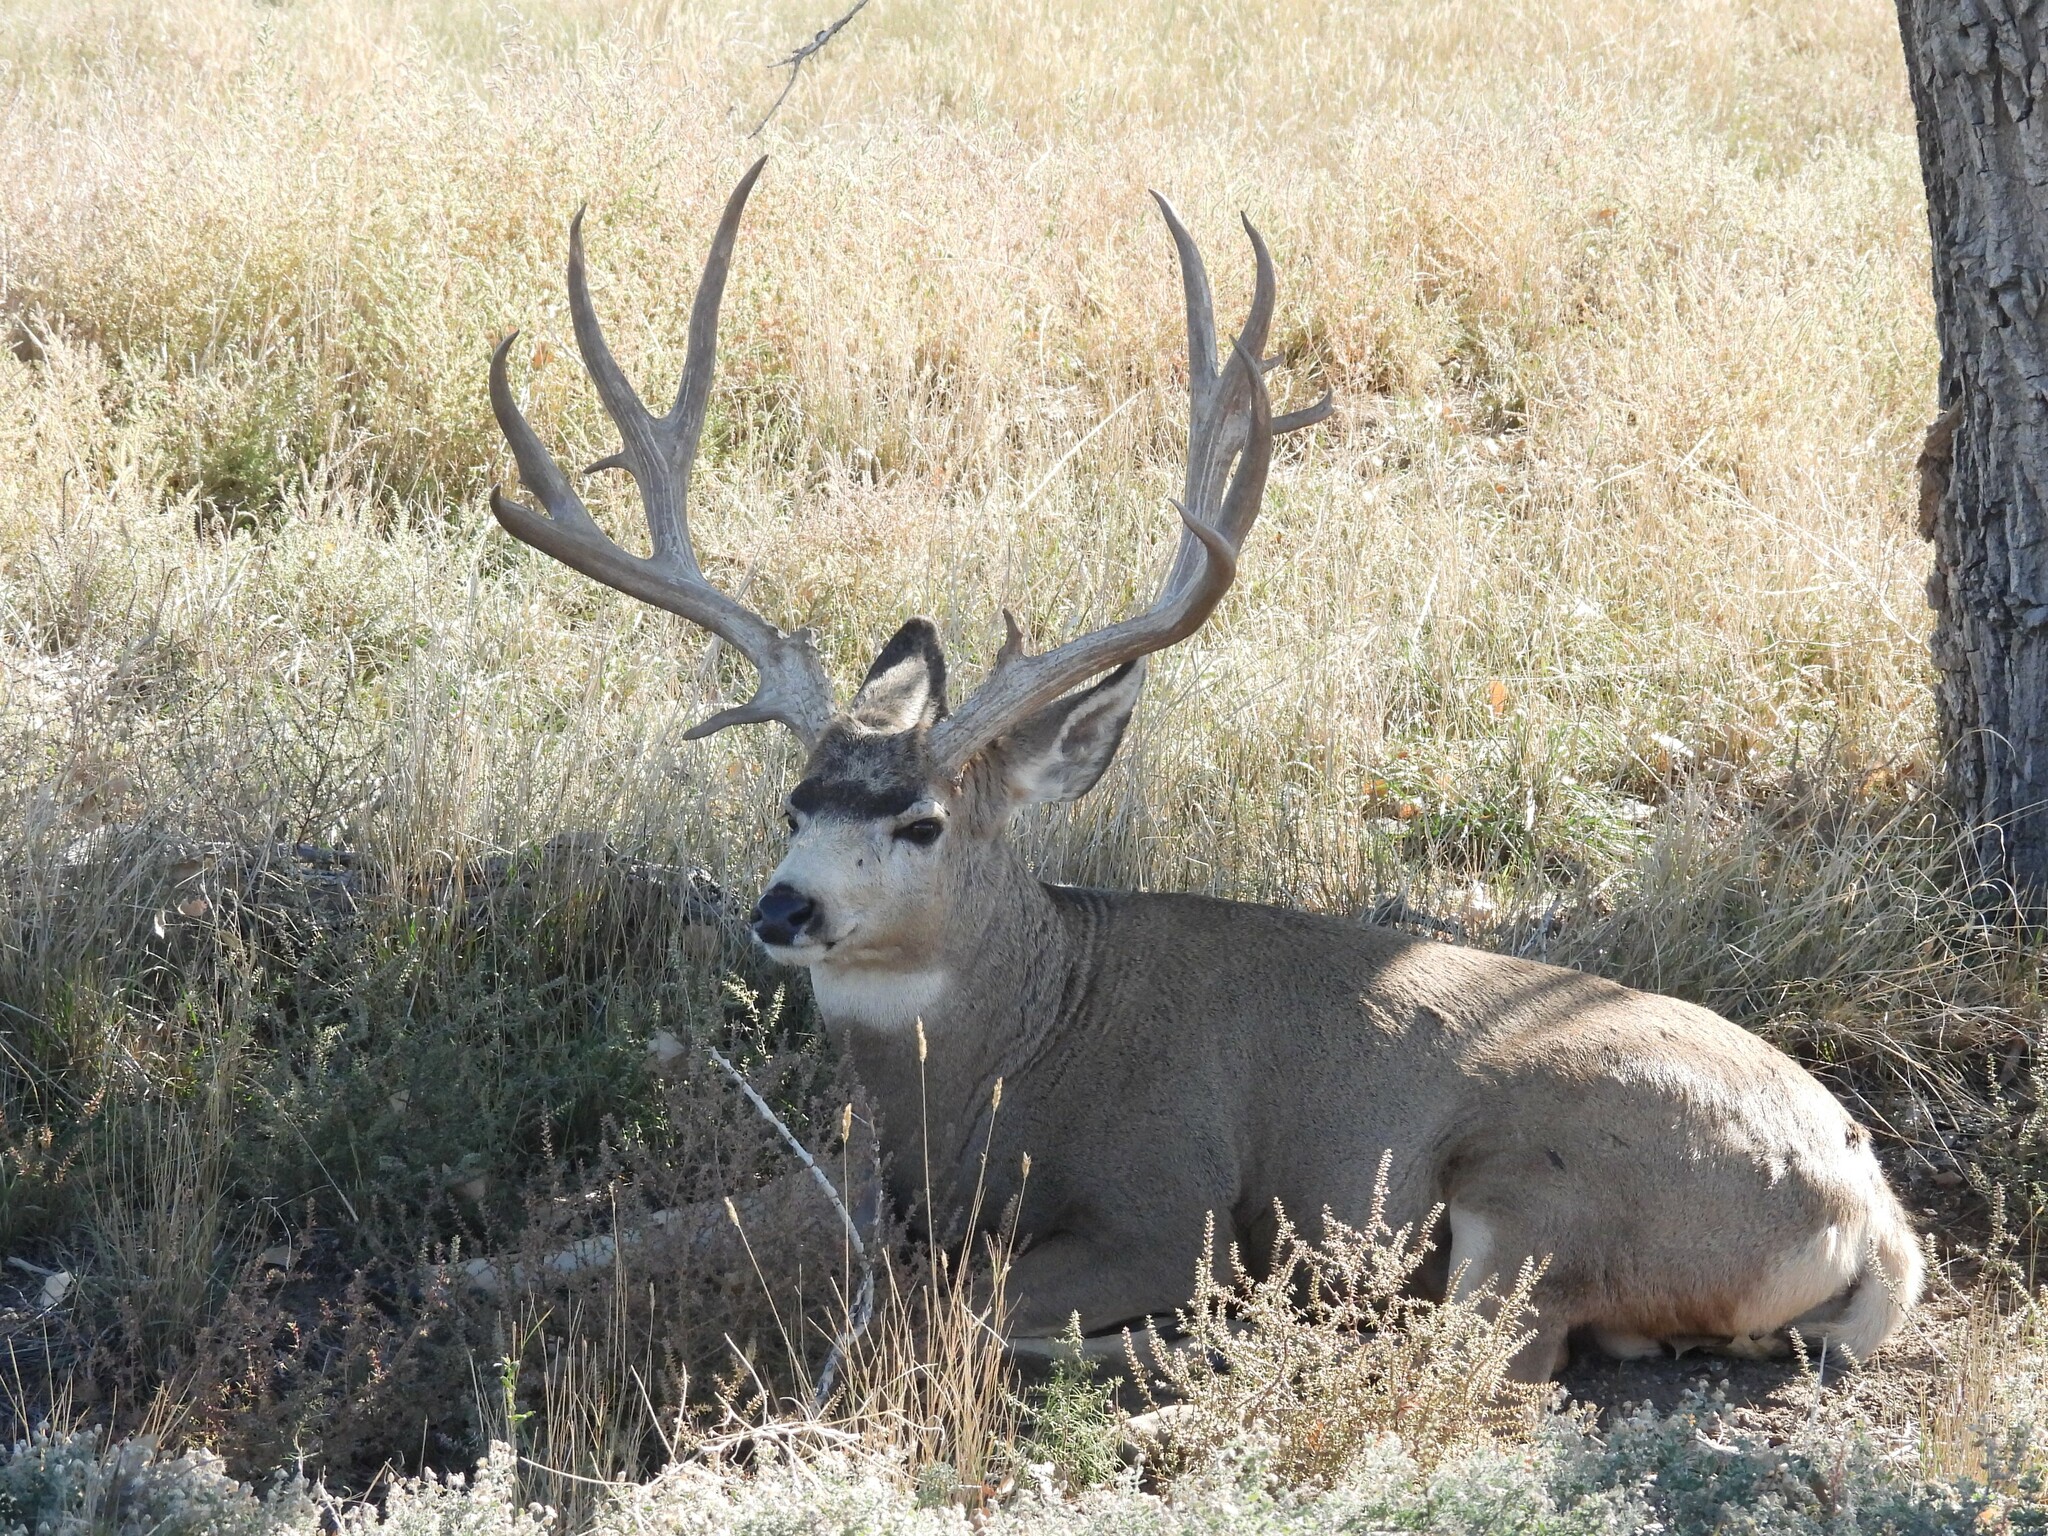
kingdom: Animalia
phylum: Chordata
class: Mammalia
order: Artiodactyla
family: Cervidae
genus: Odocoileus
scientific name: Odocoileus hemionus
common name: Mule deer
